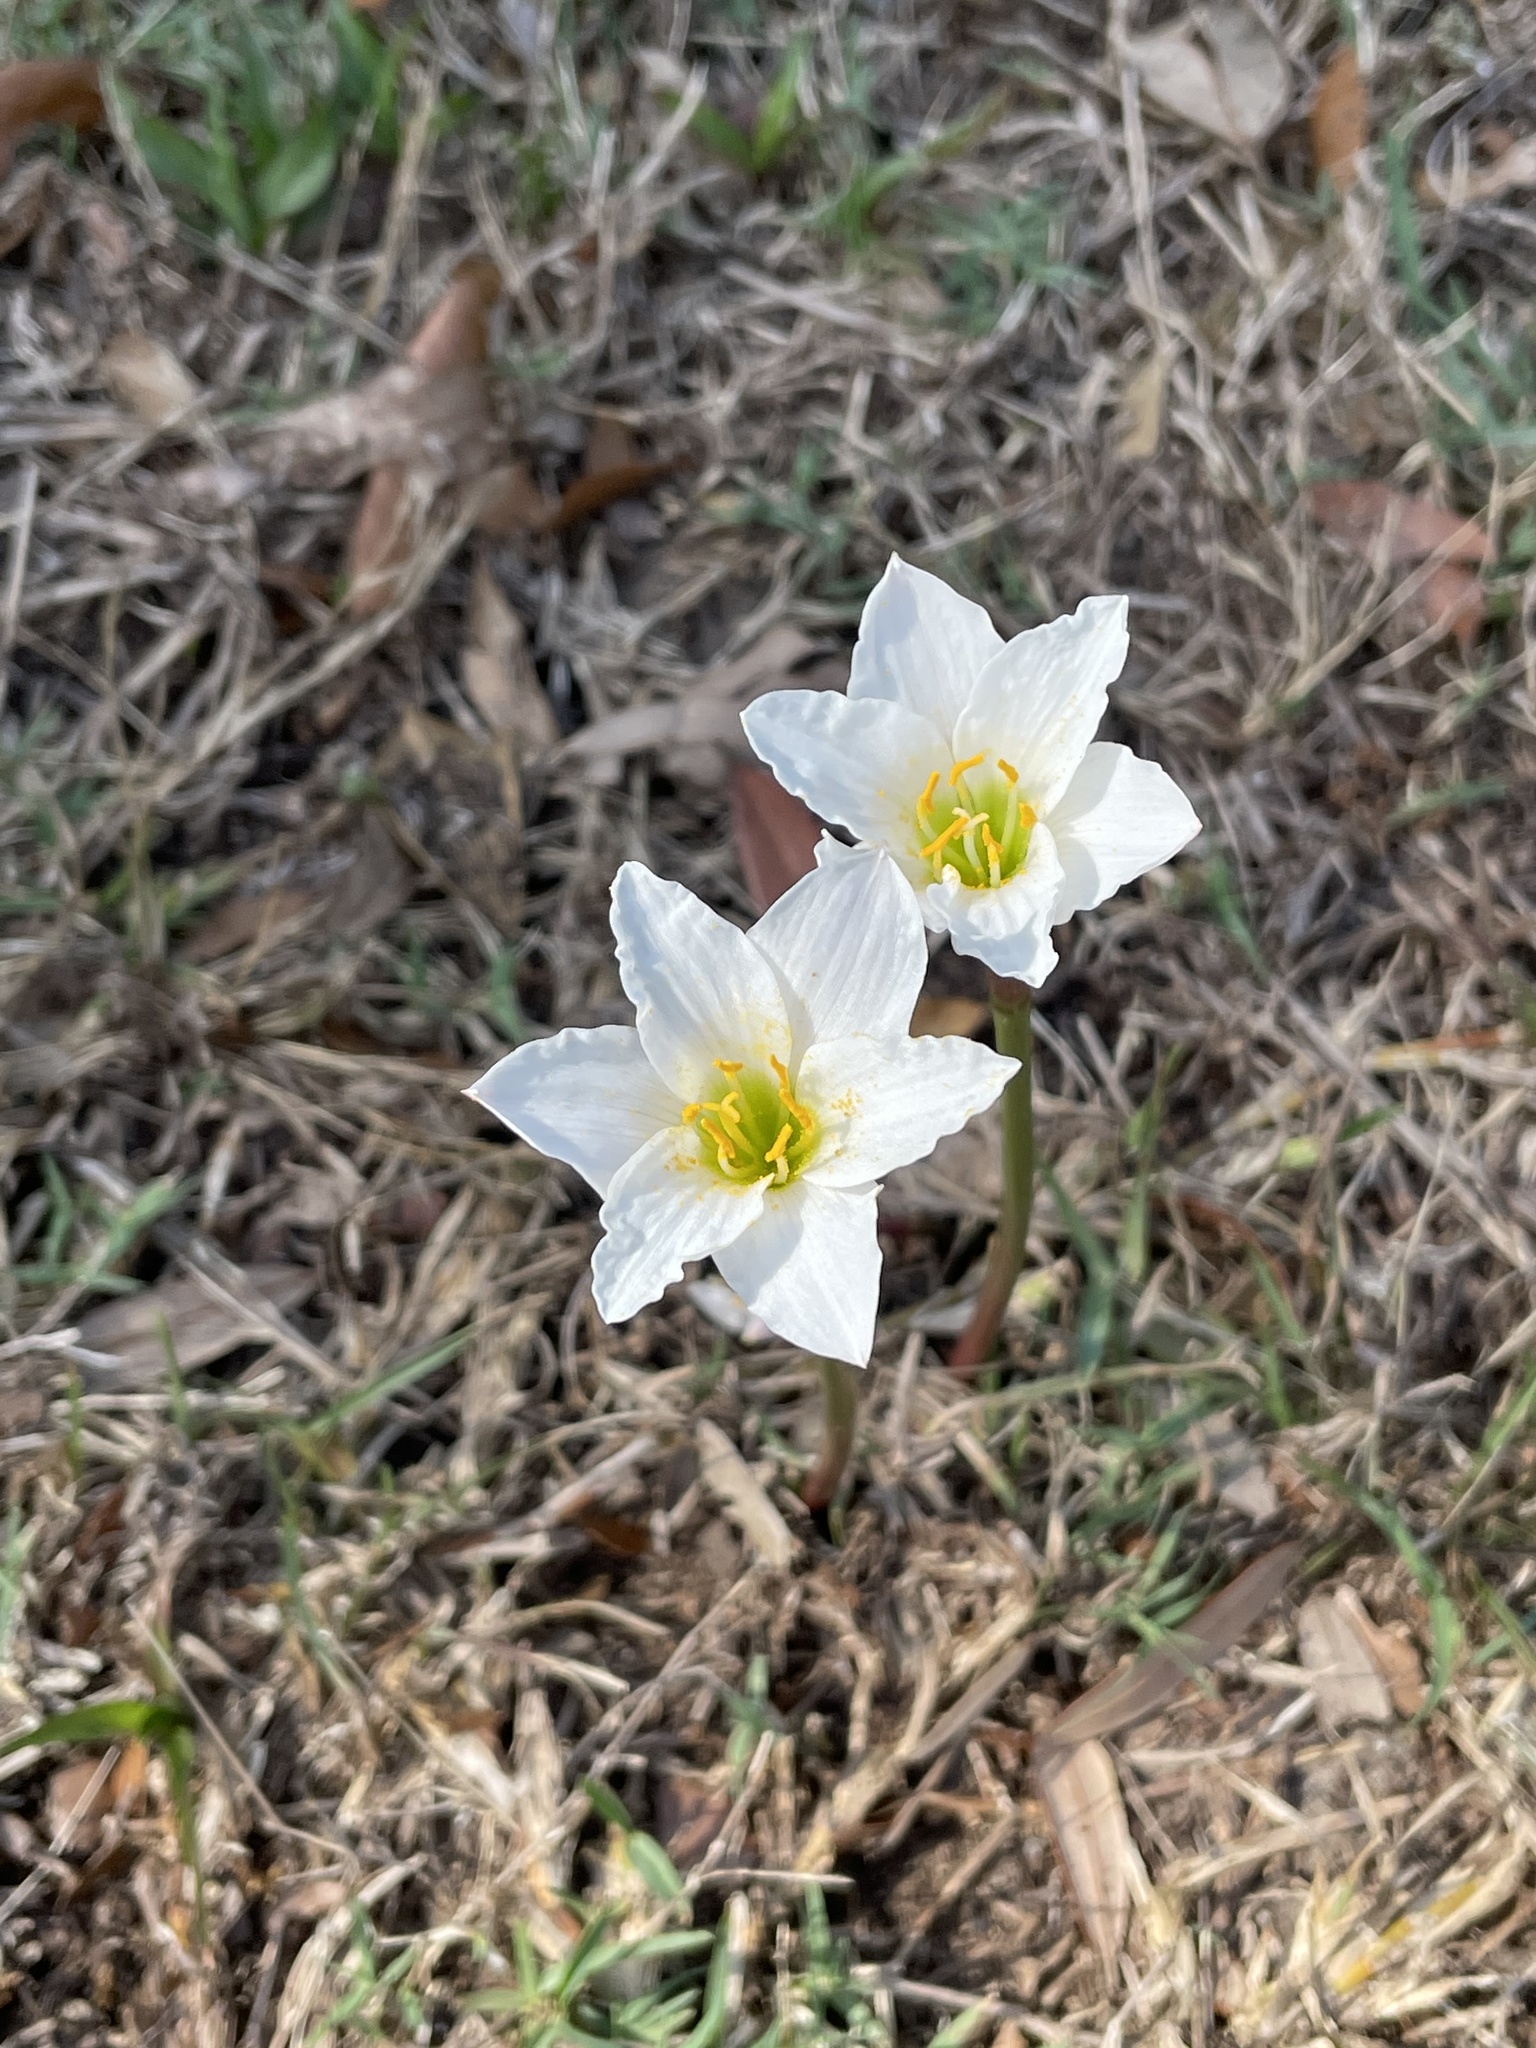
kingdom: Plantae
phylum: Tracheophyta
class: Liliopsida
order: Asparagales
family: Amaryllidaceae
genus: Zephyranthes
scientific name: Zephyranthes simpsonii
